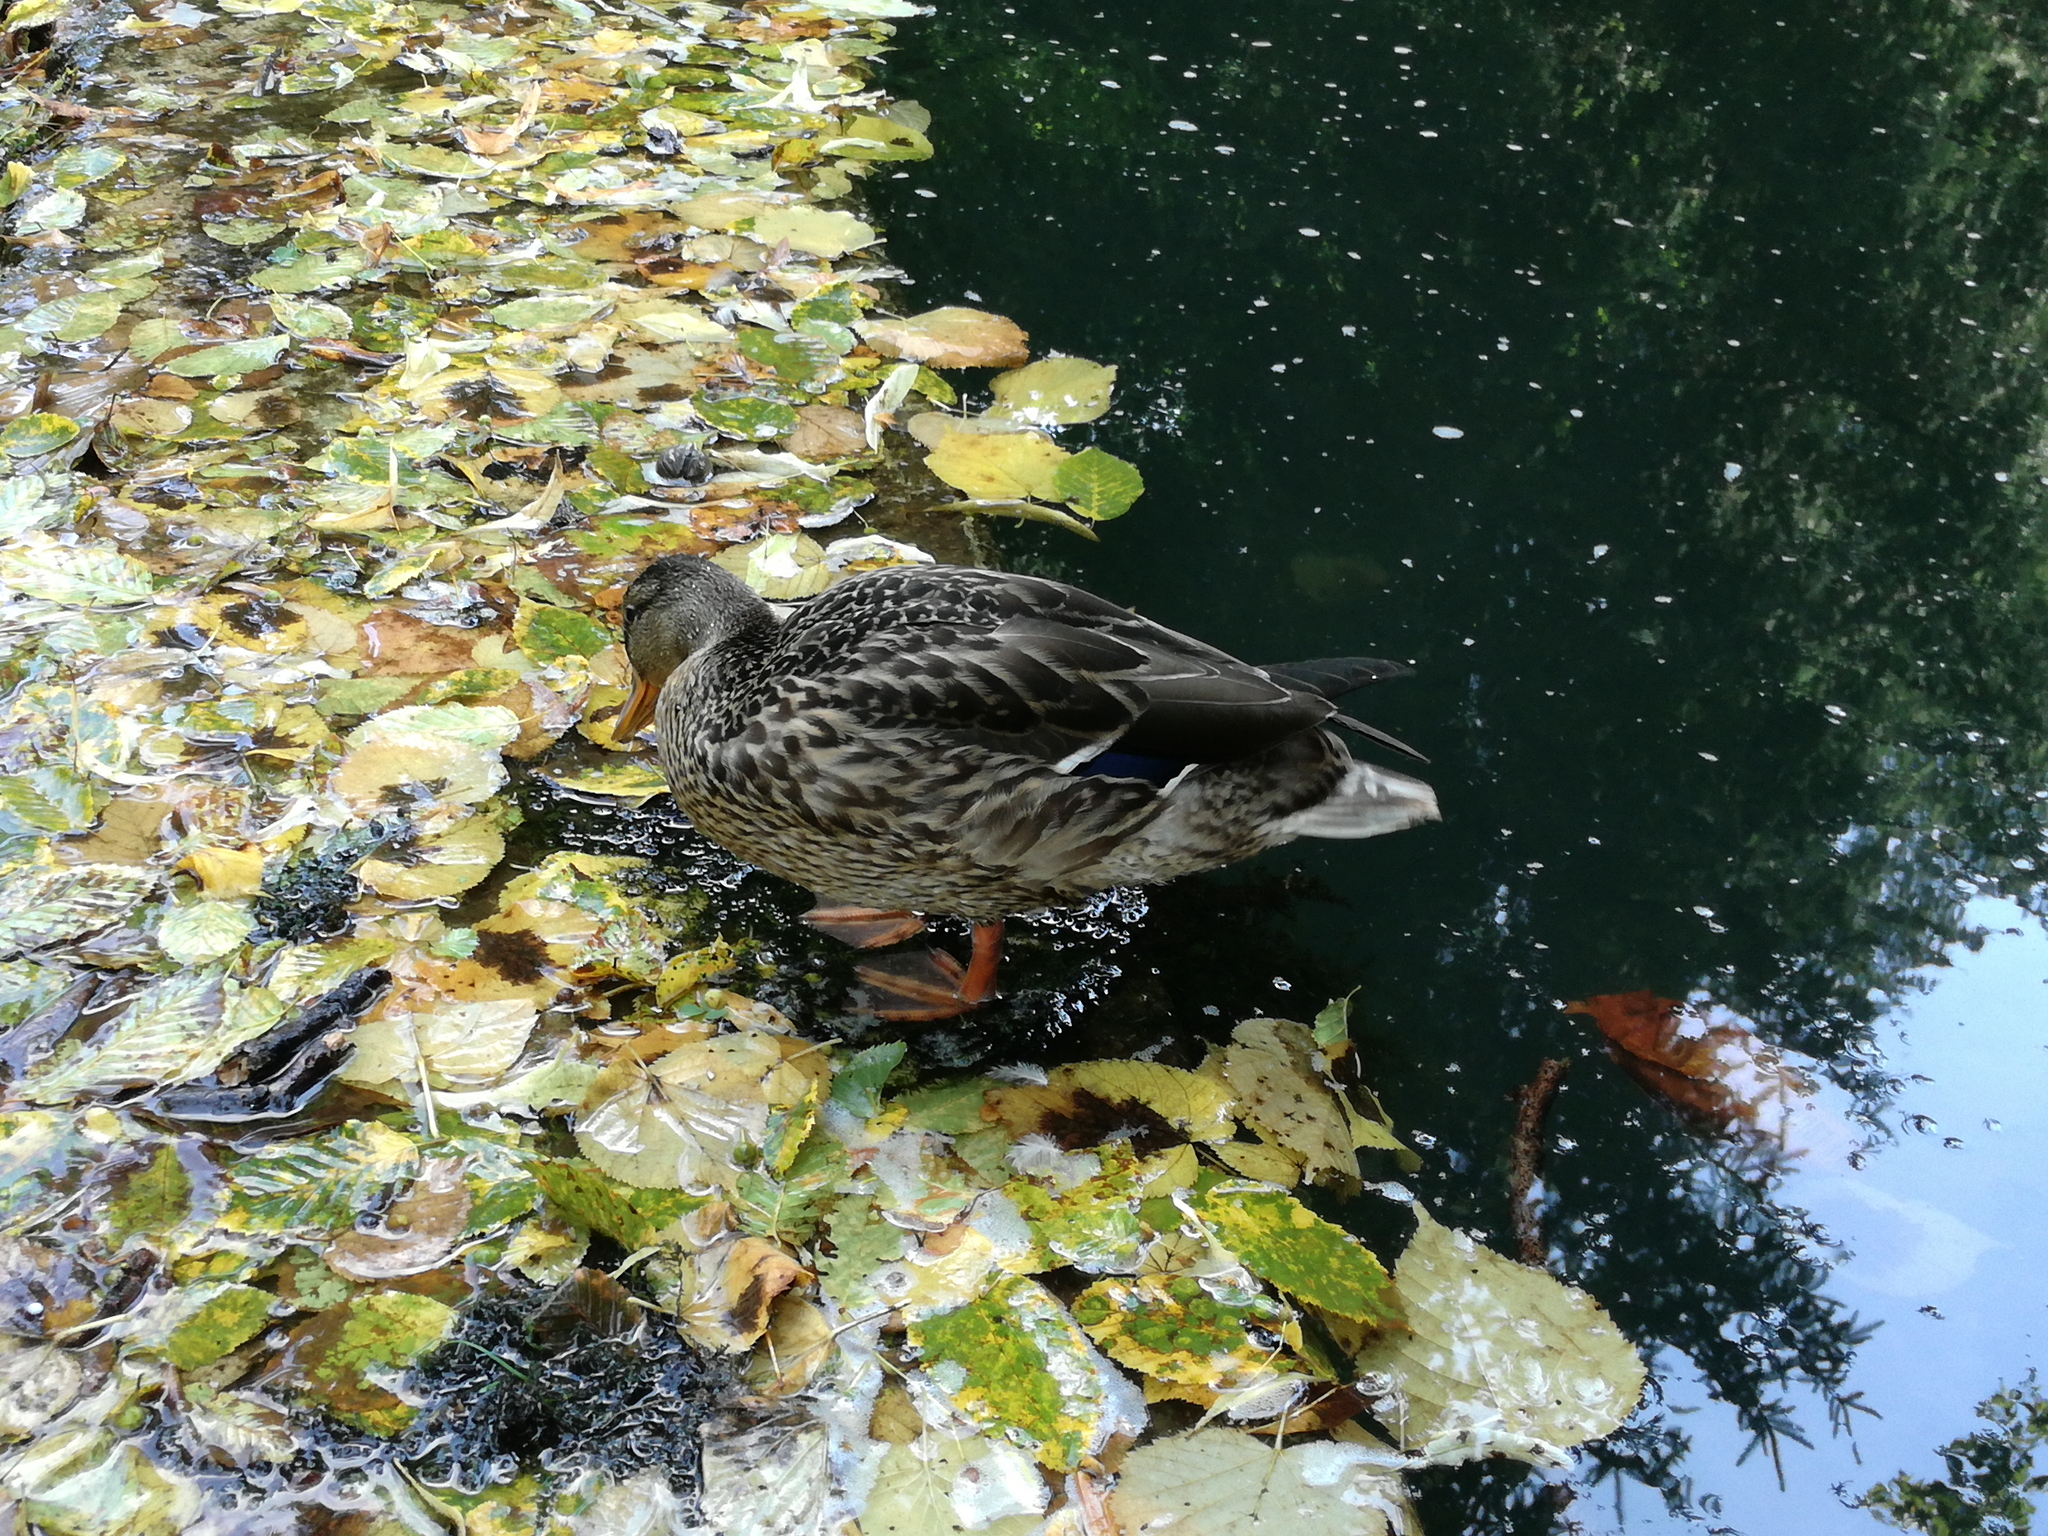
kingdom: Animalia
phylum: Chordata
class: Aves
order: Anseriformes
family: Anatidae
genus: Anas
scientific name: Anas platyrhynchos
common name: Mallard
